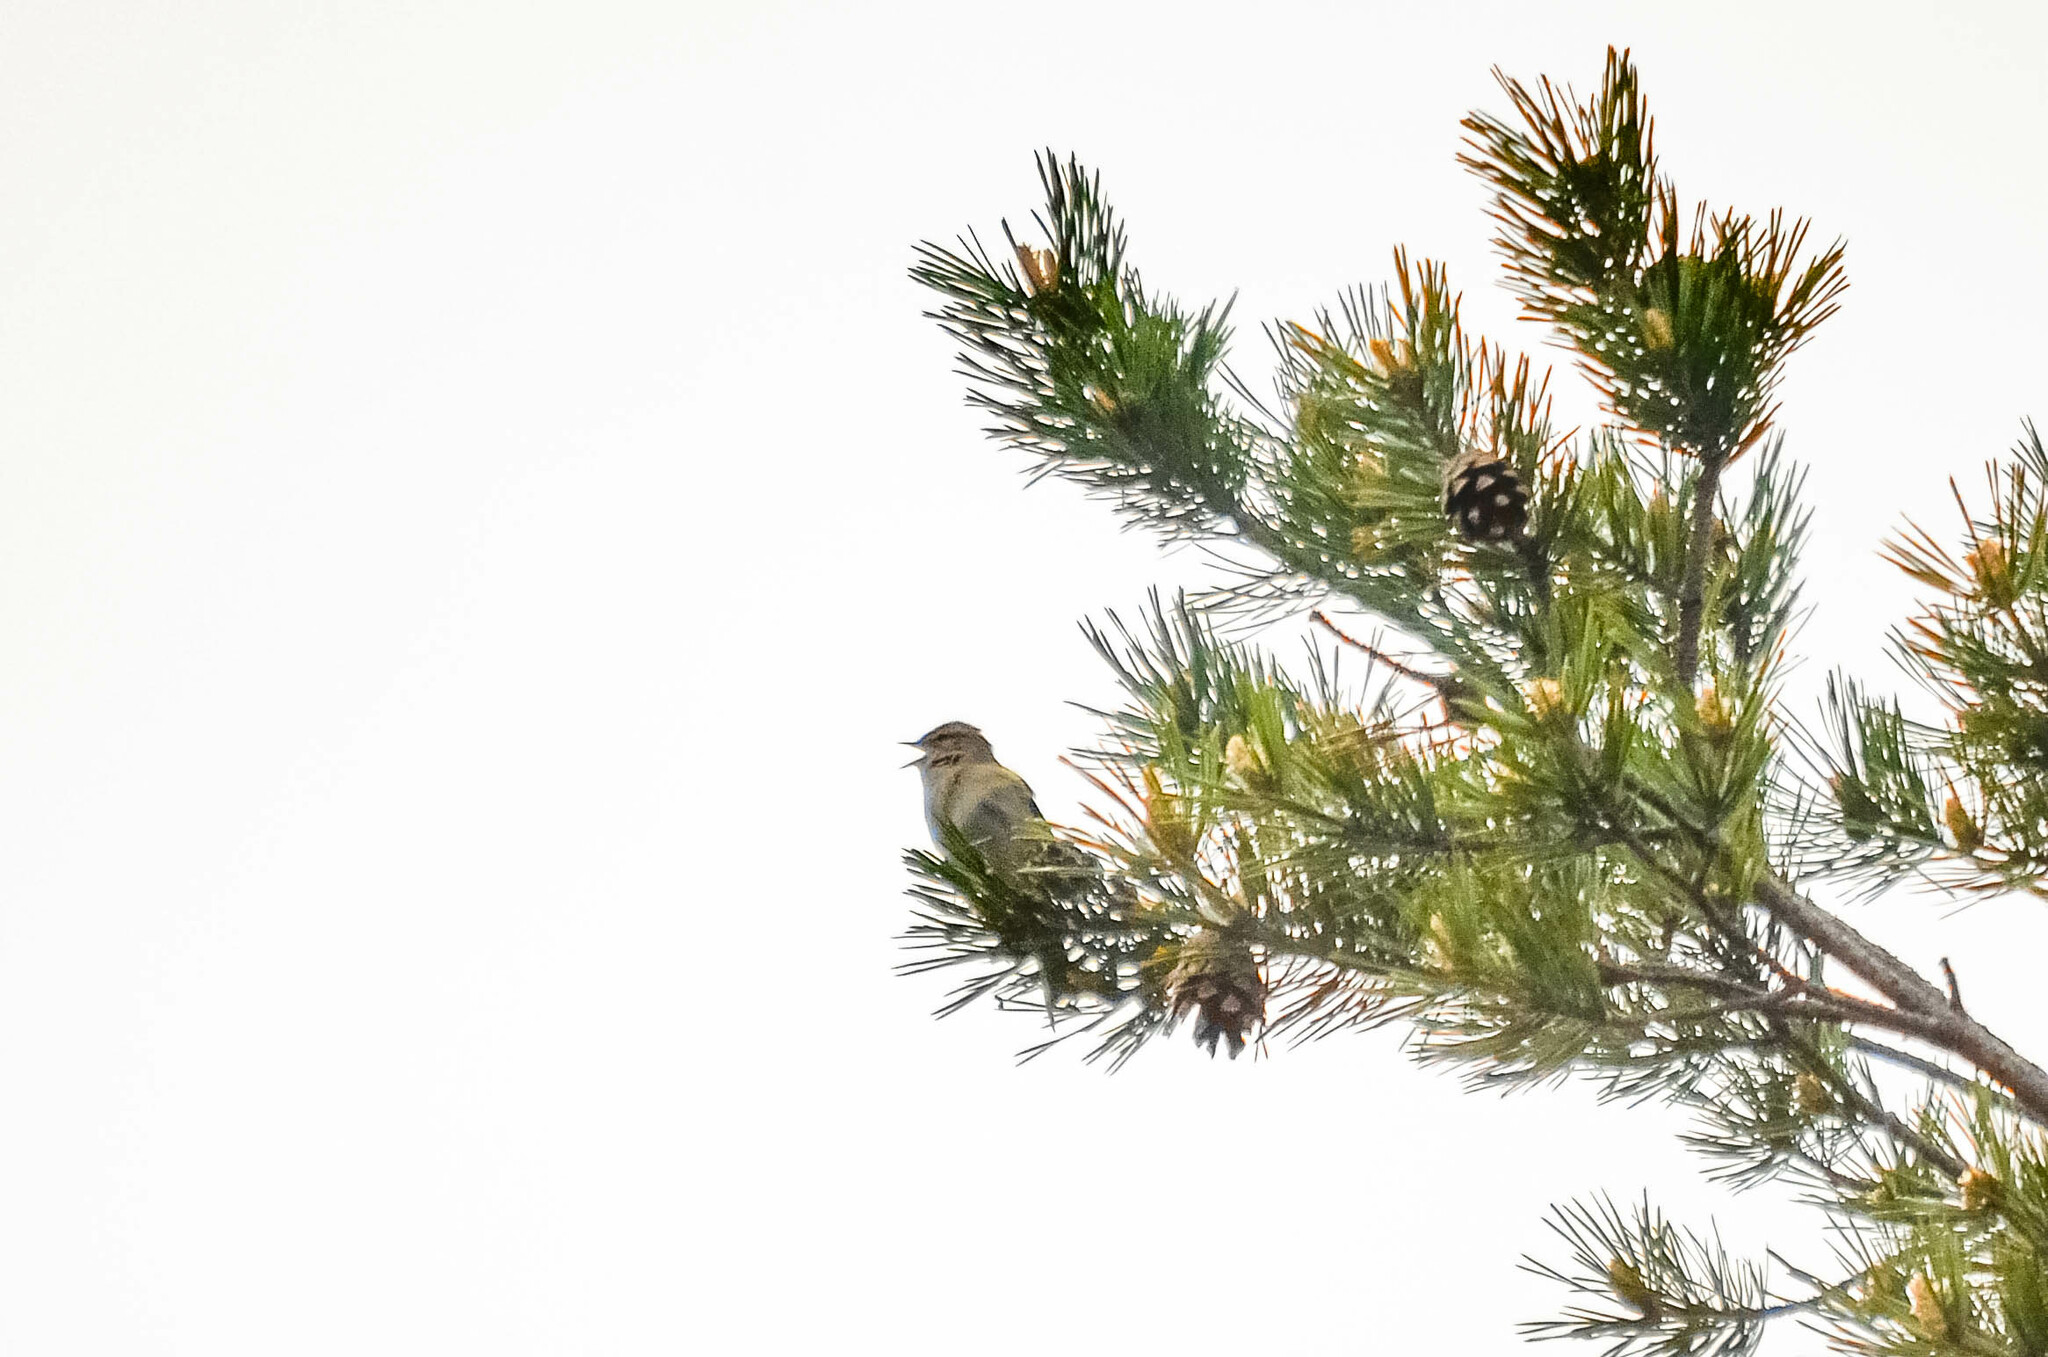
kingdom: Animalia
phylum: Chordata
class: Aves
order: Passeriformes
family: Phylloscopidae
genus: Phylloscopus
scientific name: Phylloscopus trochilus
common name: Willow warbler
